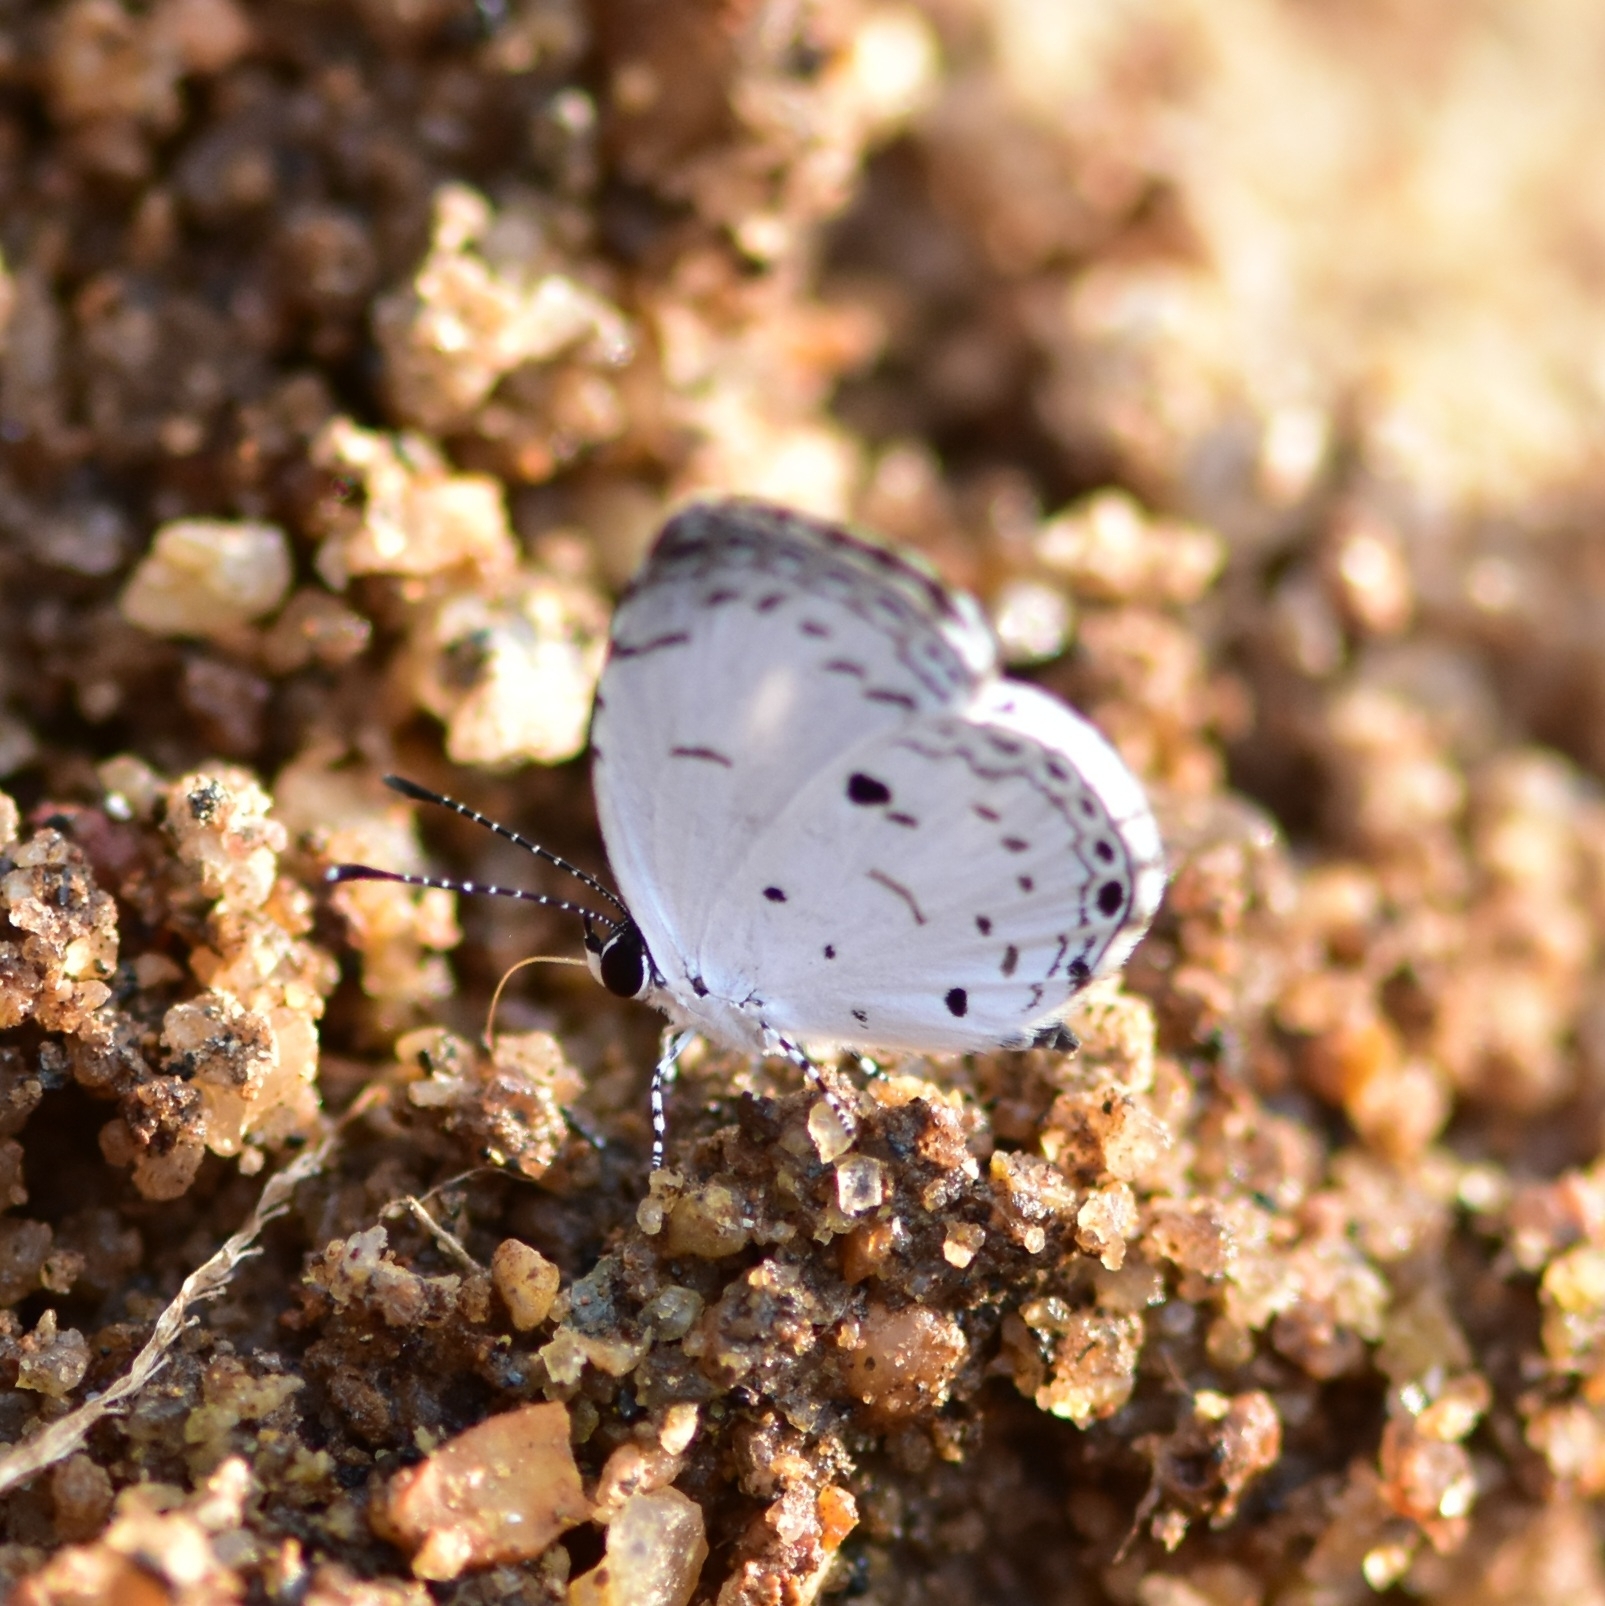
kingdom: Animalia
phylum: Arthropoda
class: Insecta
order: Lepidoptera
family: Lycaenidae
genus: Neopithecops
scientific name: Neopithecops zalmora
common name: Quaker
